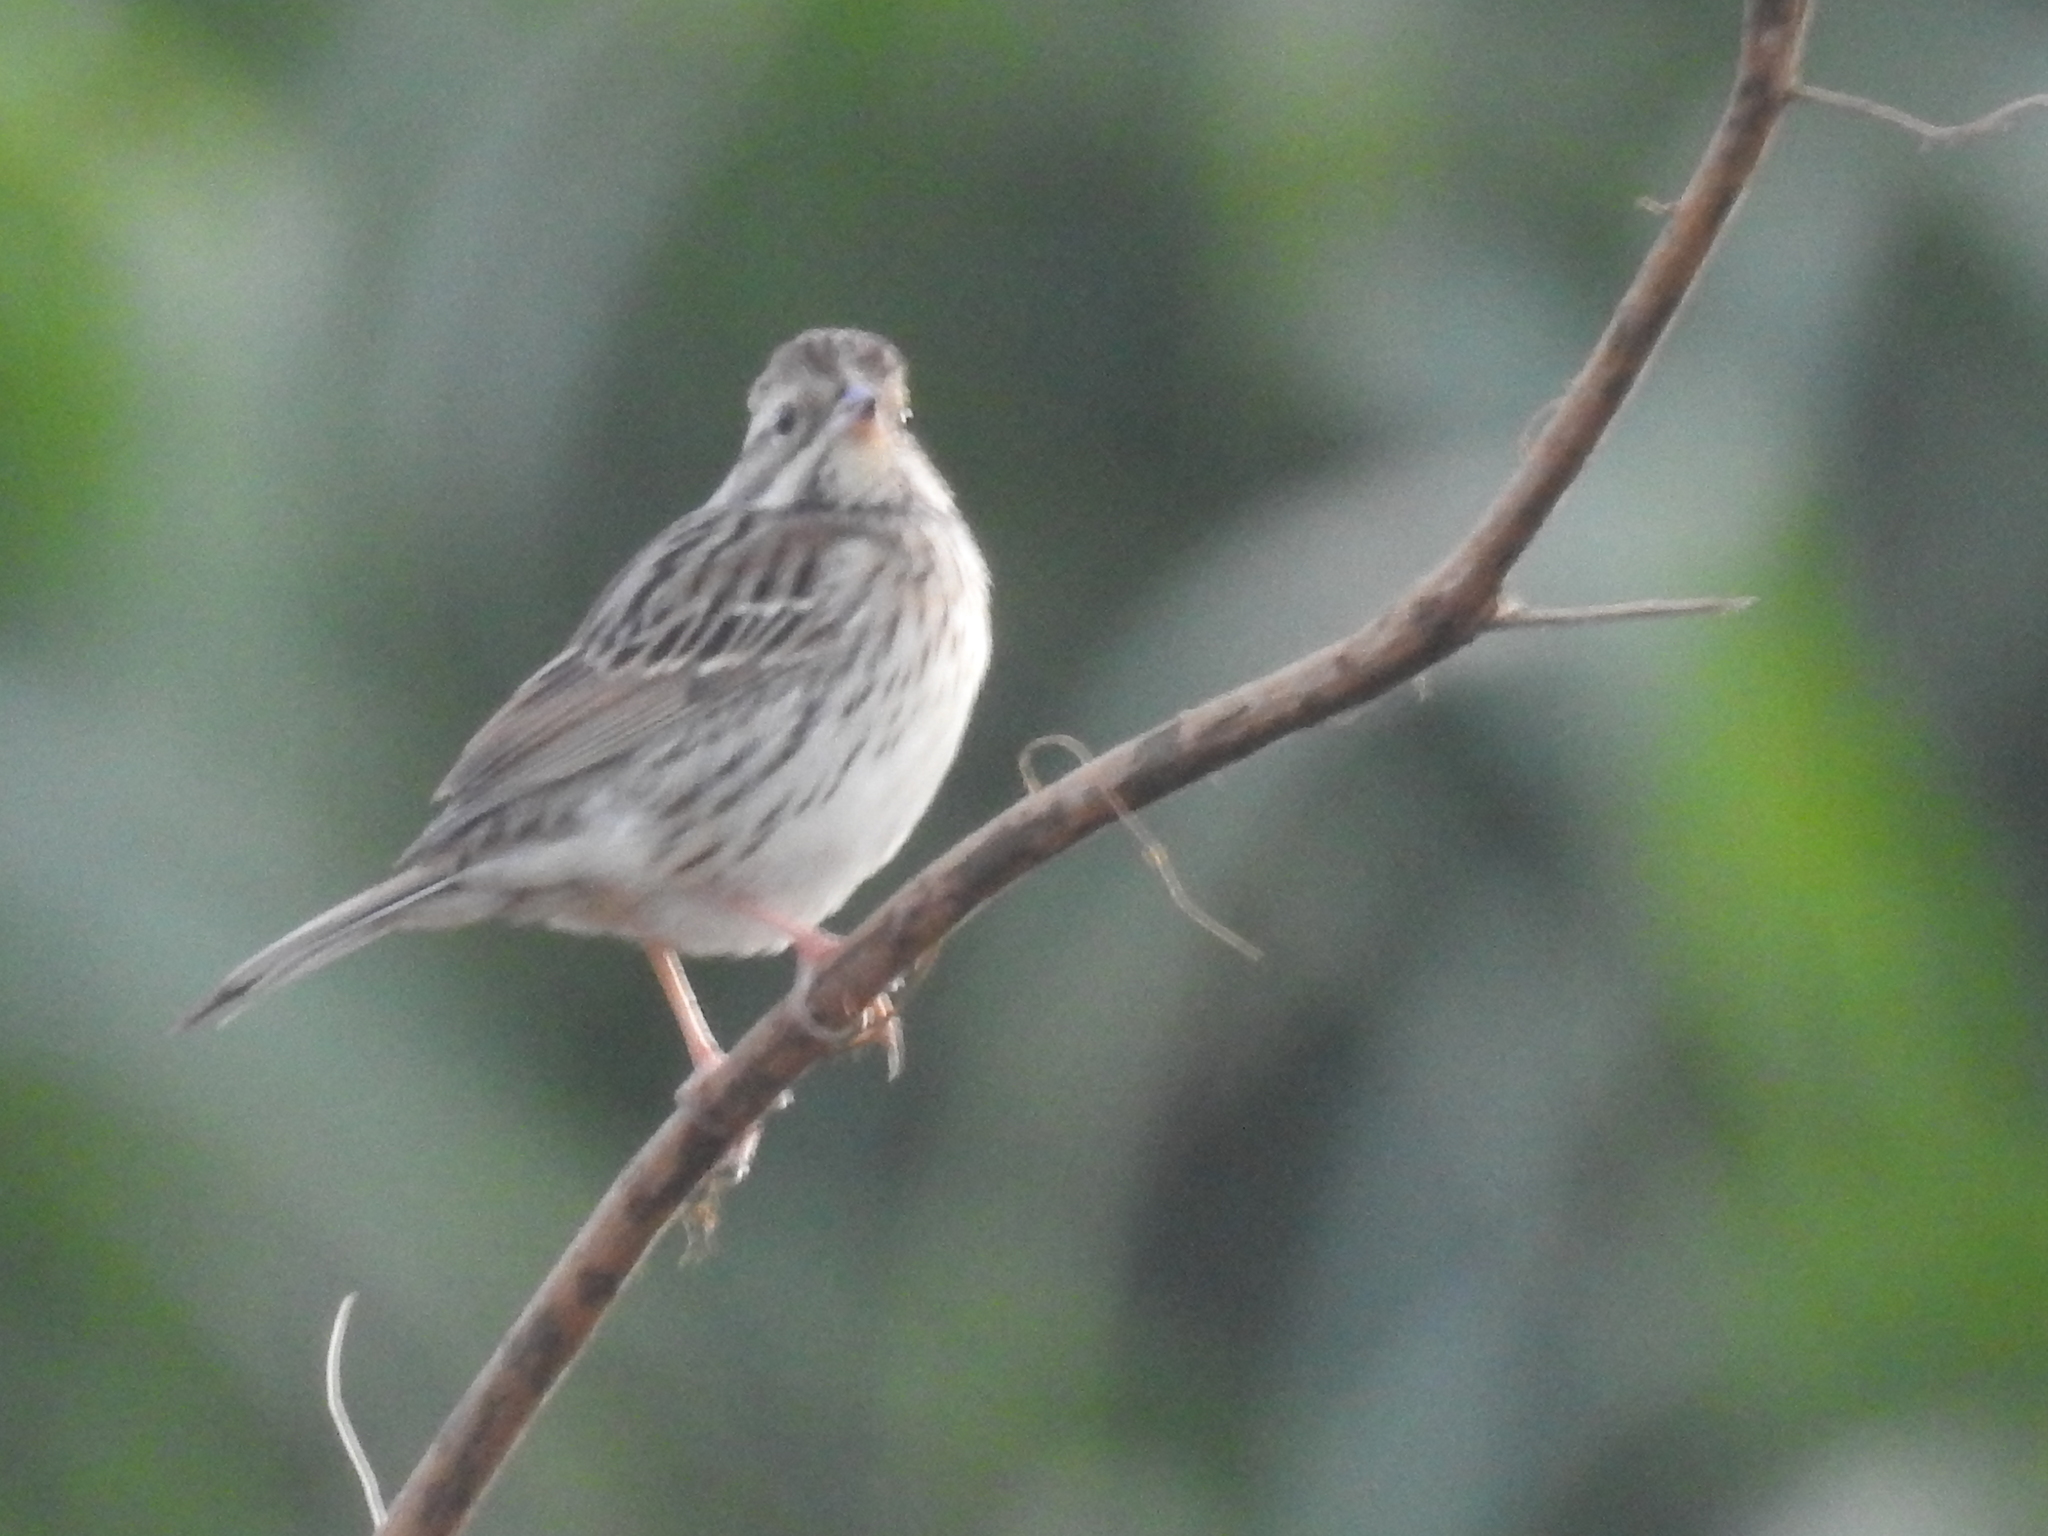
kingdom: Animalia
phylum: Chordata
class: Aves
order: Passeriformes
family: Emberizidae
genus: Emberiza
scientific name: Emberiza spodocephala
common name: Black-faced bunting
